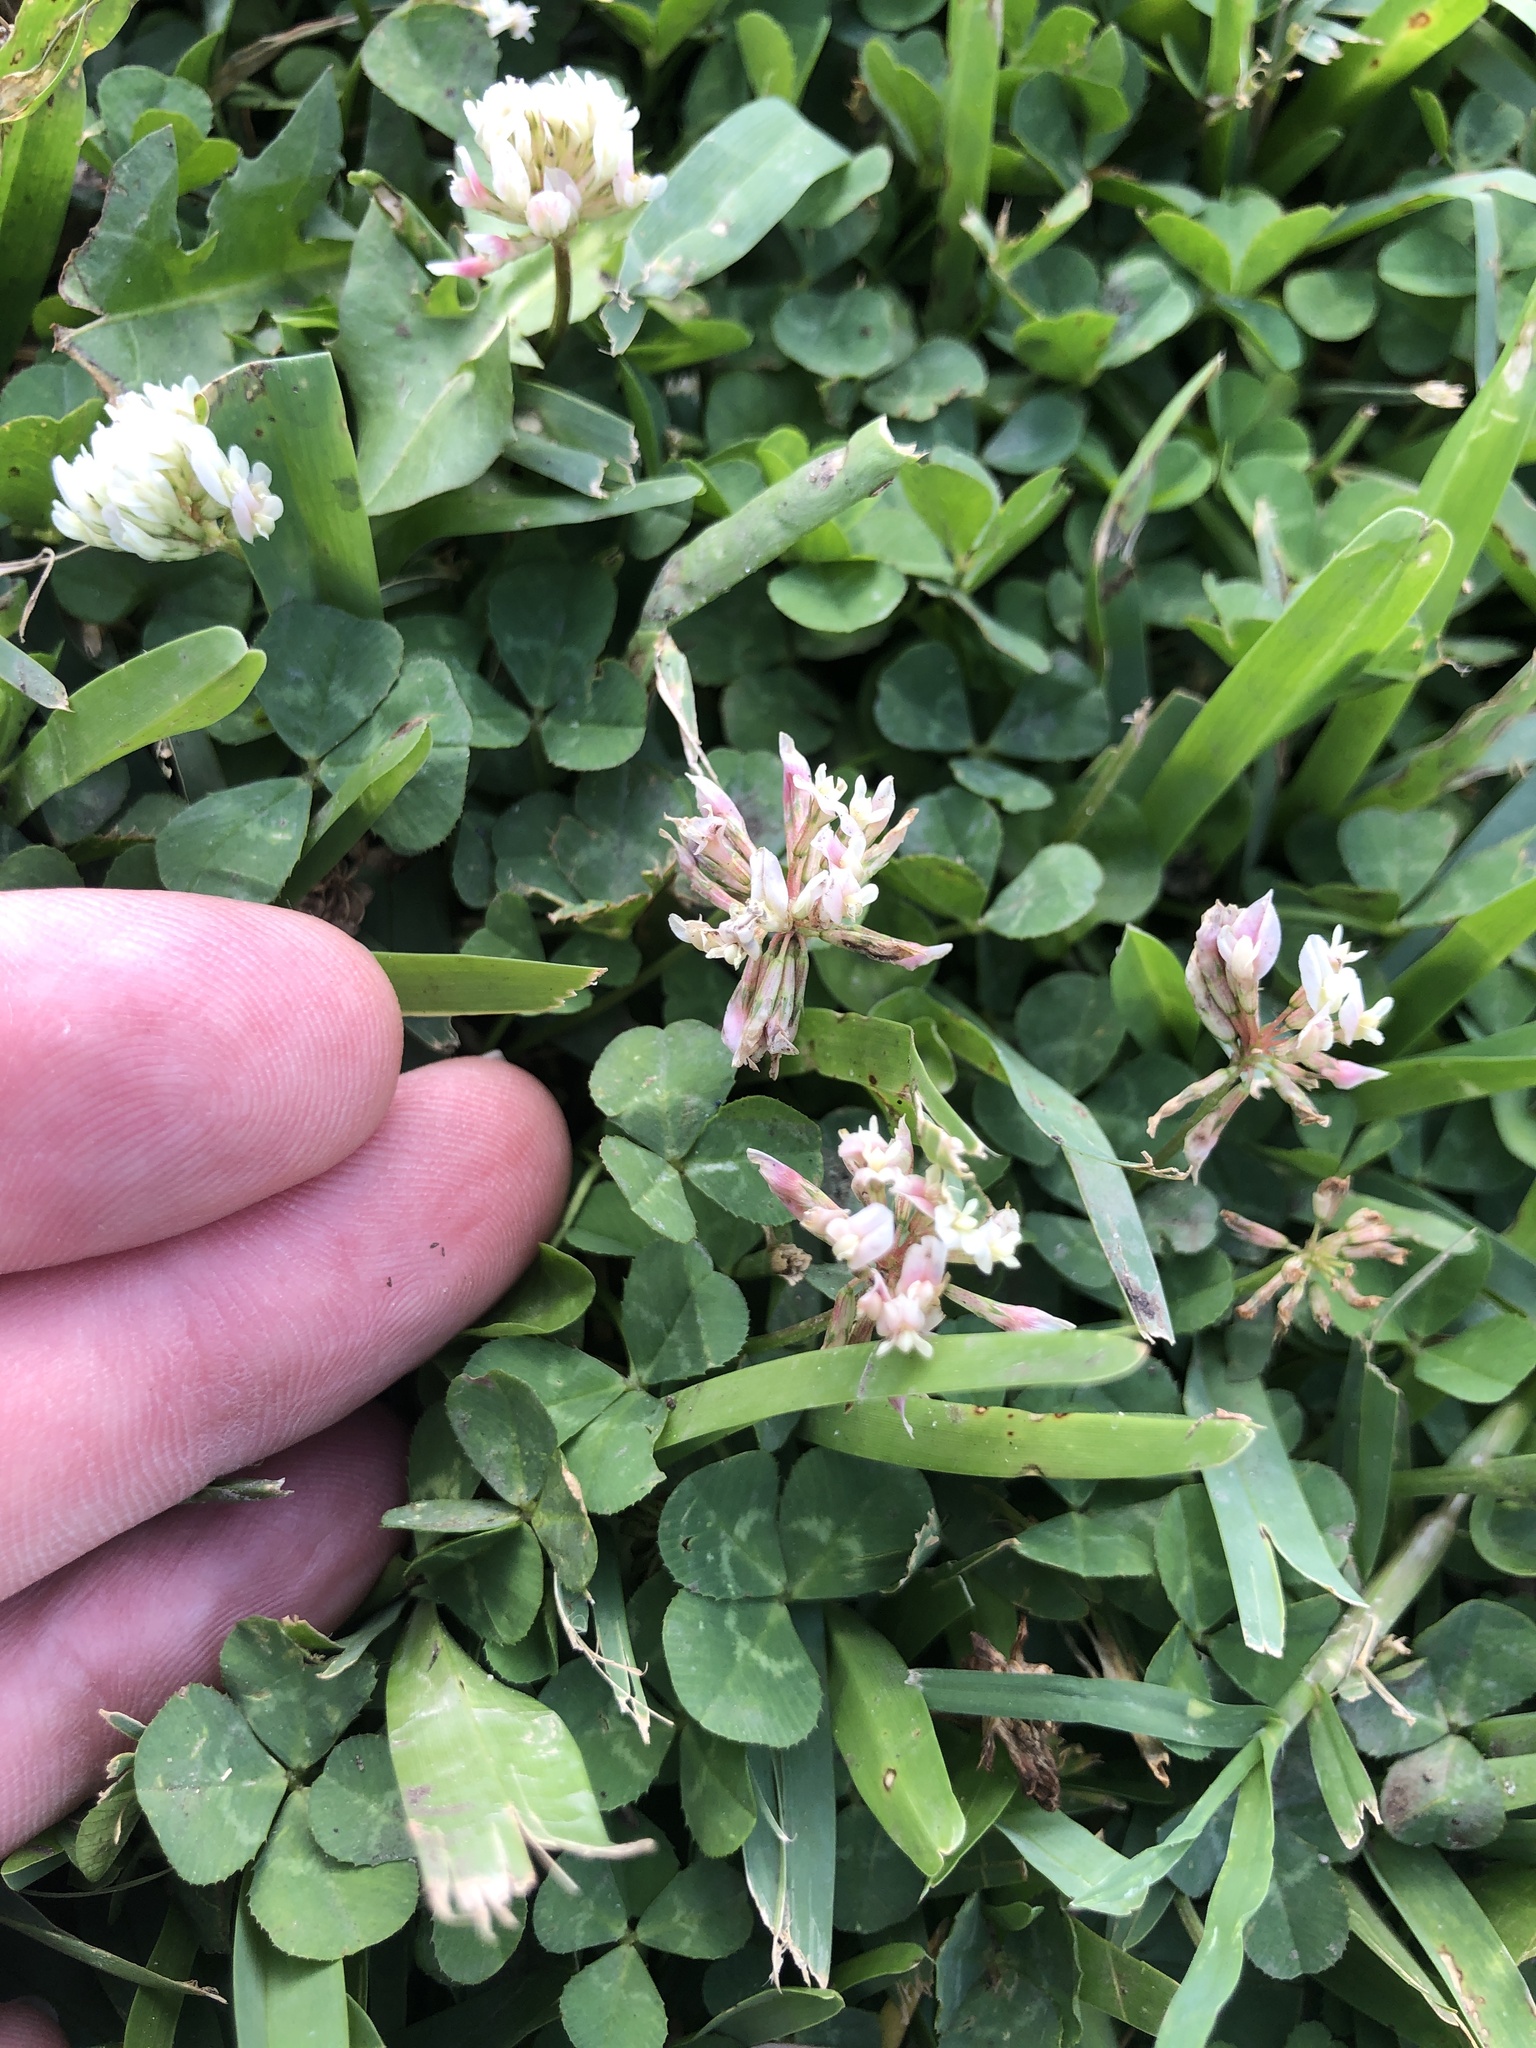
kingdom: Plantae
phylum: Tracheophyta
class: Magnoliopsida
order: Fabales
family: Fabaceae
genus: Trifolium
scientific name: Trifolium repens
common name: White clover
